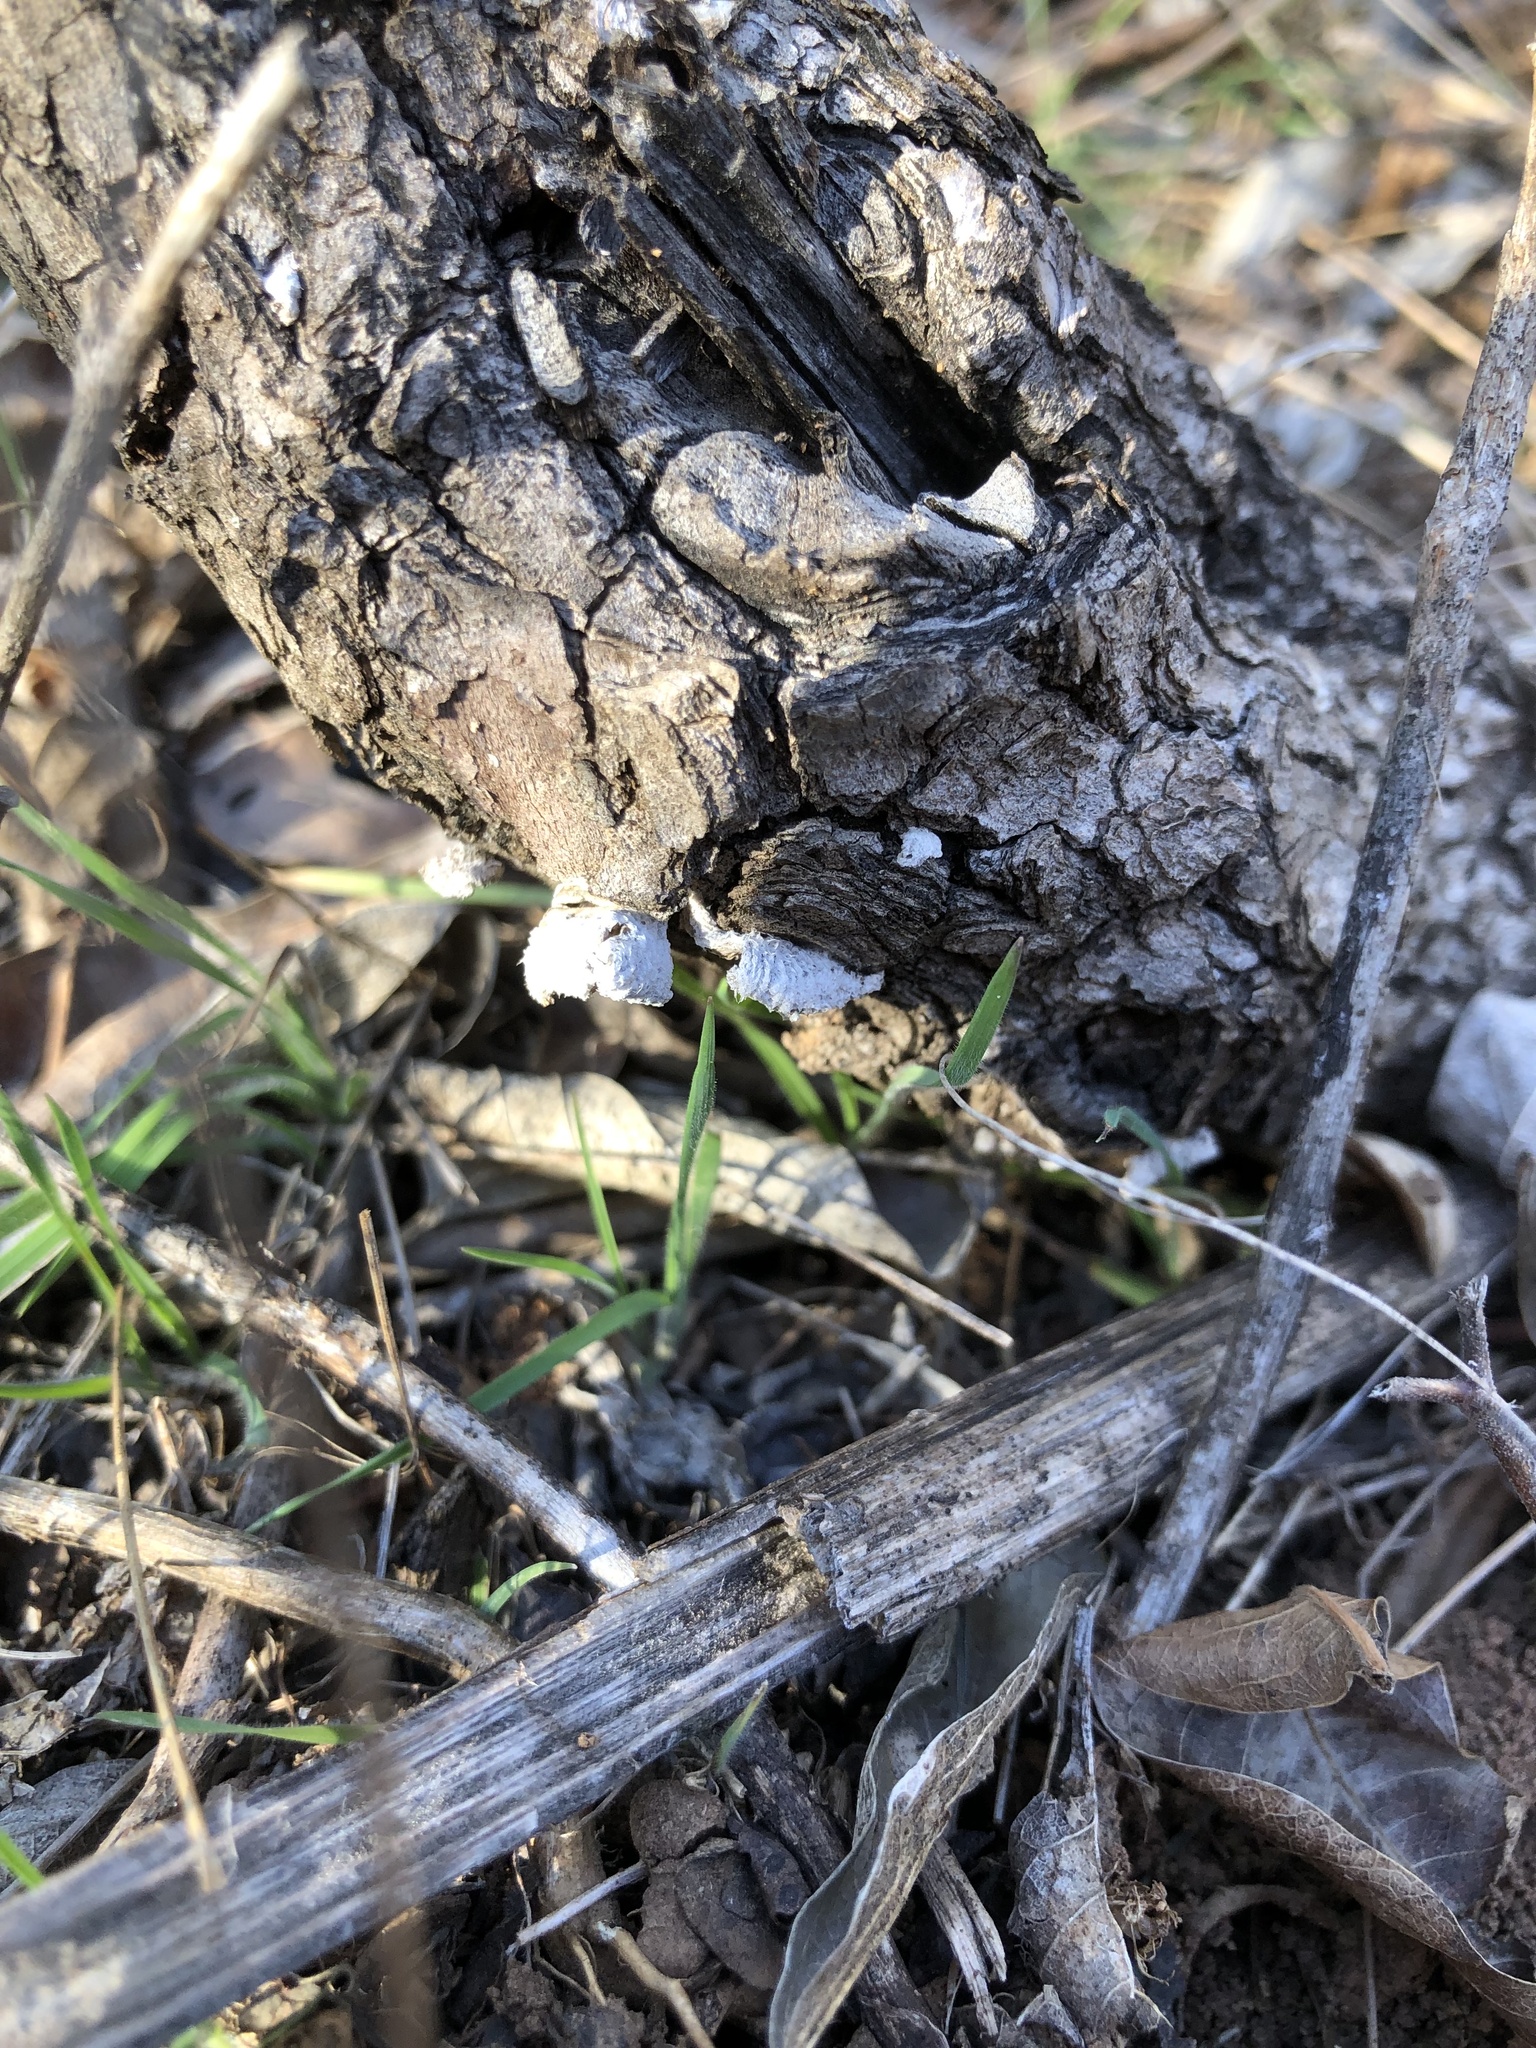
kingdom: Fungi
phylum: Basidiomycota
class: Agaricomycetes
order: Agaricales
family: Schizophyllaceae
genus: Schizophyllum
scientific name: Schizophyllum commune
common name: Common porecrust
